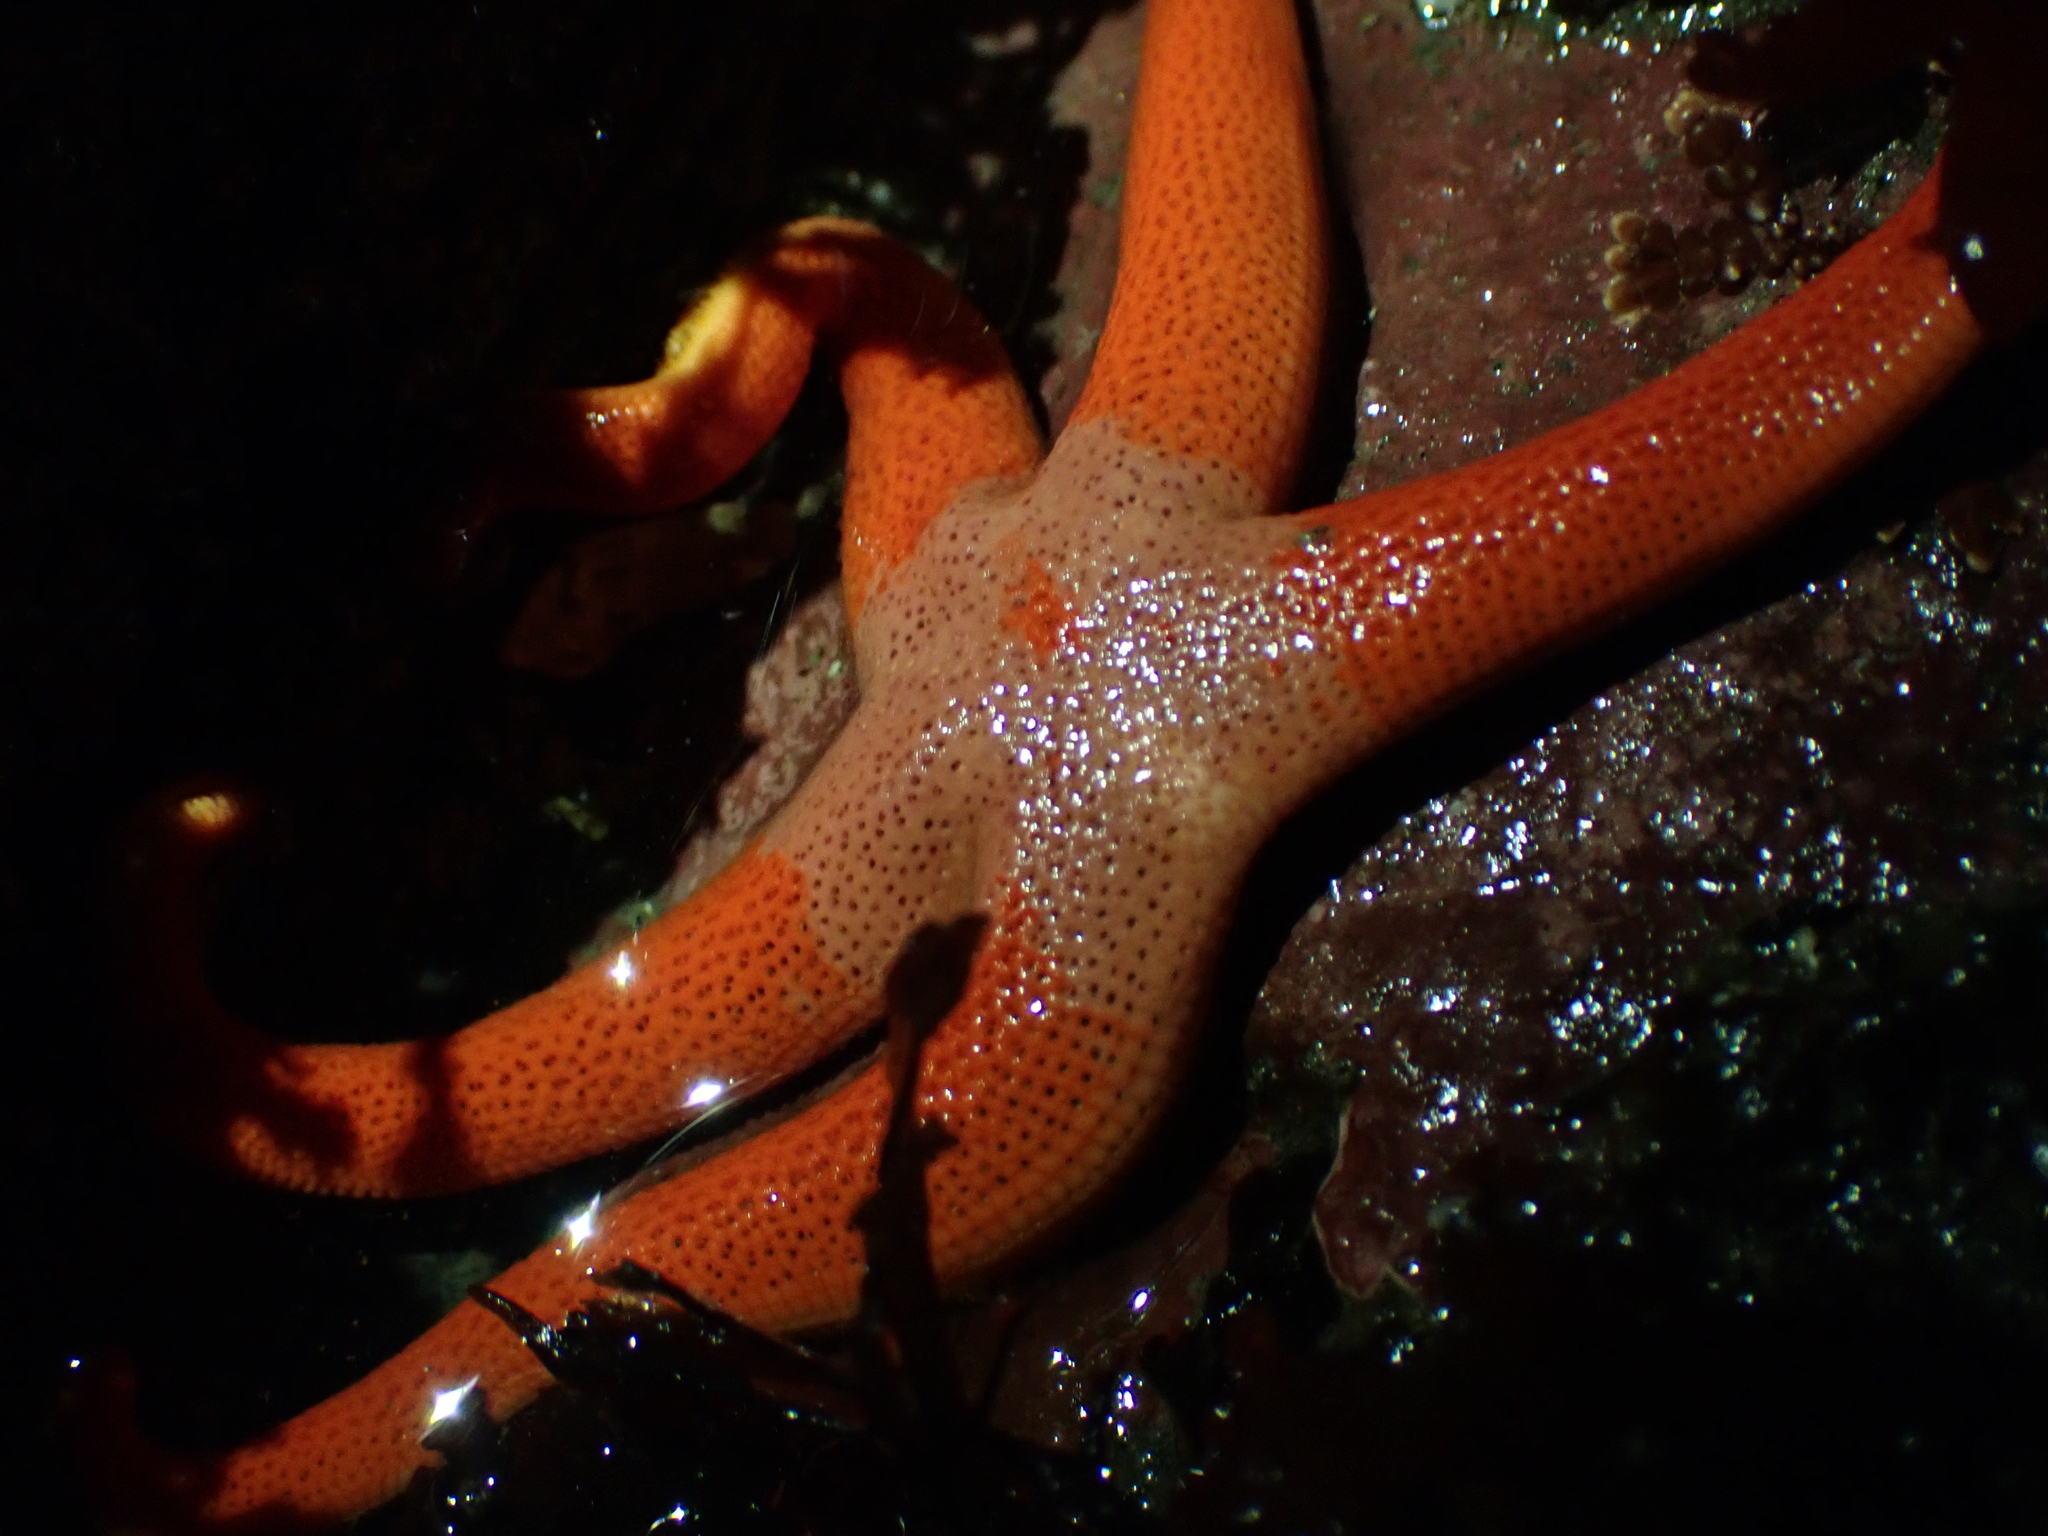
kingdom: Animalia
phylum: Echinodermata
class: Asteroidea
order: Spinulosida
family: Echinasteridae
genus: Henricia
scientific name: Henricia leviuscula
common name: Pacific blood star
